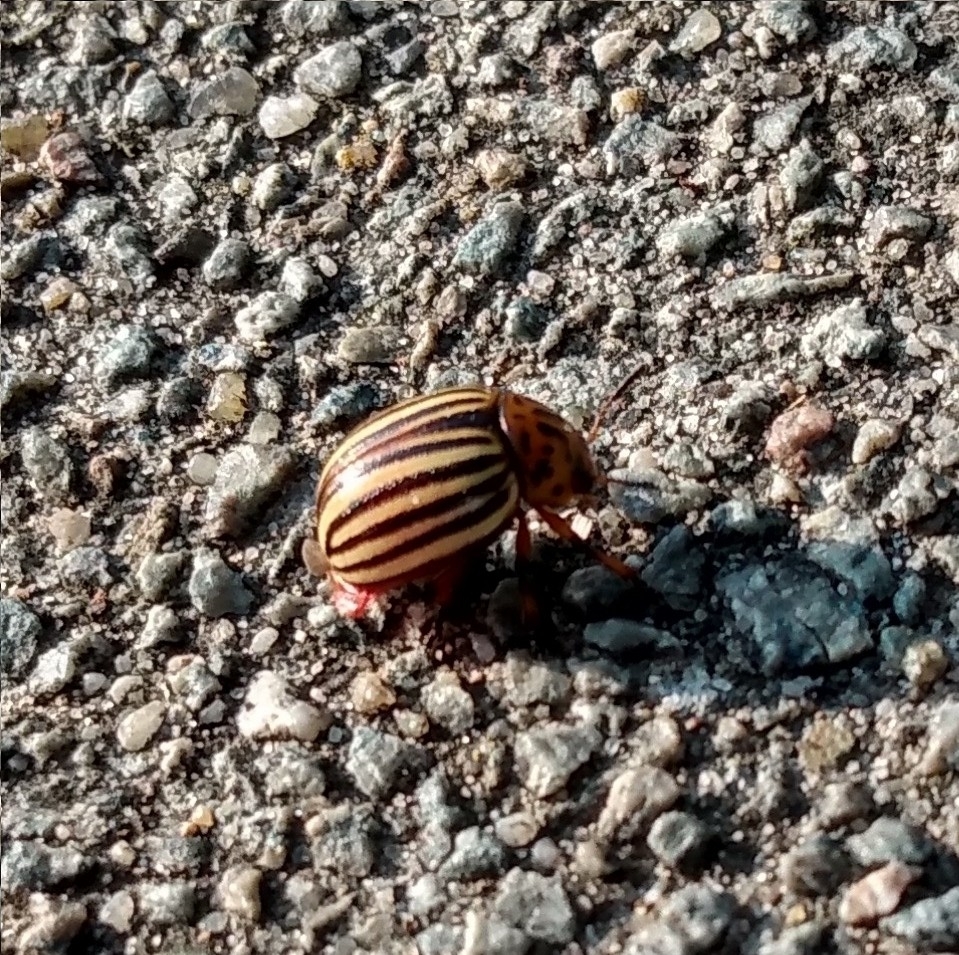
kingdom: Animalia
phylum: Arthropoda
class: Insecta
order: Coleoptera
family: Chrysomelidae
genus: Leptinotarsa
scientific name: Leptinotarsa decemlineata
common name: Colorado potato beetle
